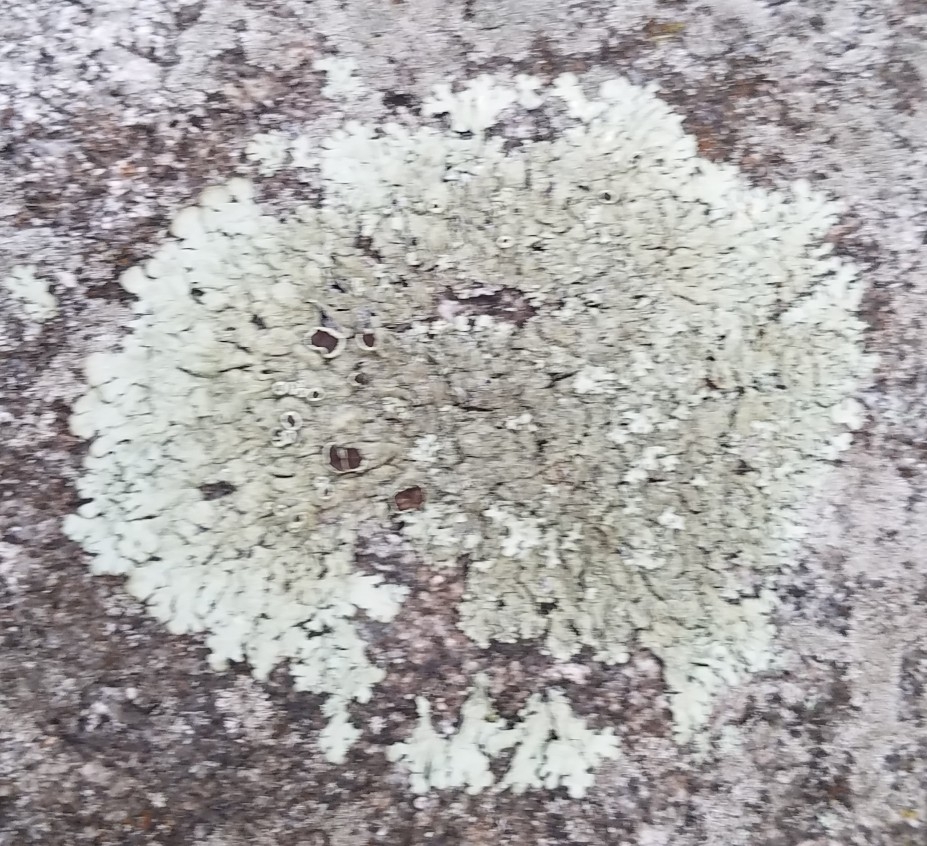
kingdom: Fungi
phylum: Ascomycota
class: Lecanoromycetes
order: Lecanorales
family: Parmeliaceae
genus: Flavoparmelia
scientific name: Flavoparmelia caperata
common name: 40-mile per hour lichen
